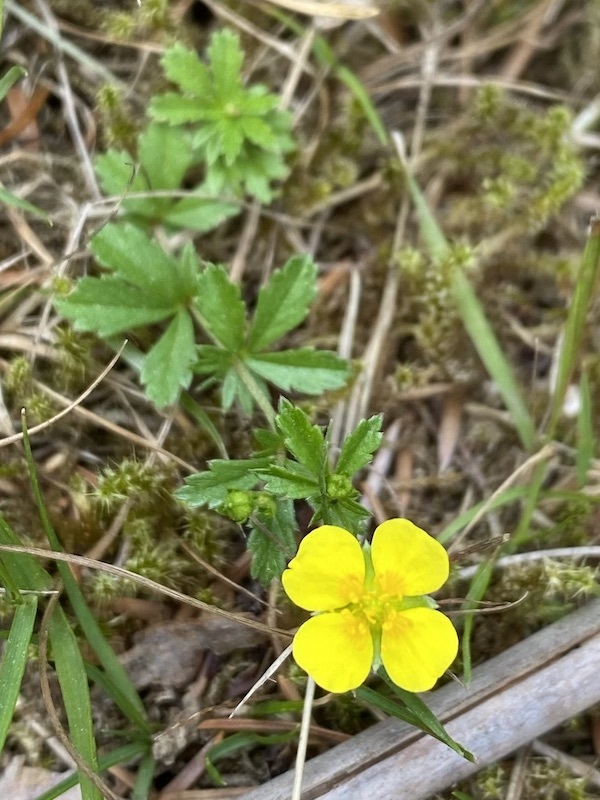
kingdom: Plantae
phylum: Tracheophyta
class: Magnoliopsida
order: Rosales
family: Rosaceae
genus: Potentilla
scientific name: Potentilla erecta
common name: Tormentil
